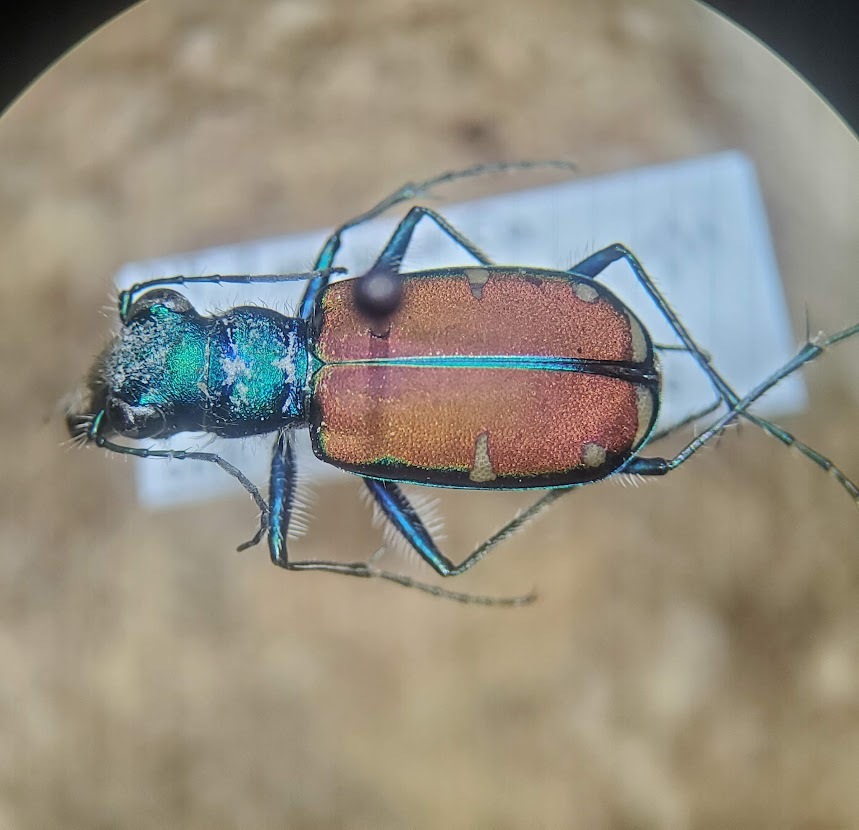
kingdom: Animalia
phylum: Arthropoda
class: Insecta
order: Coleoptera
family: Carabidae
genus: Cicindela
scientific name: Cicindela splendida
